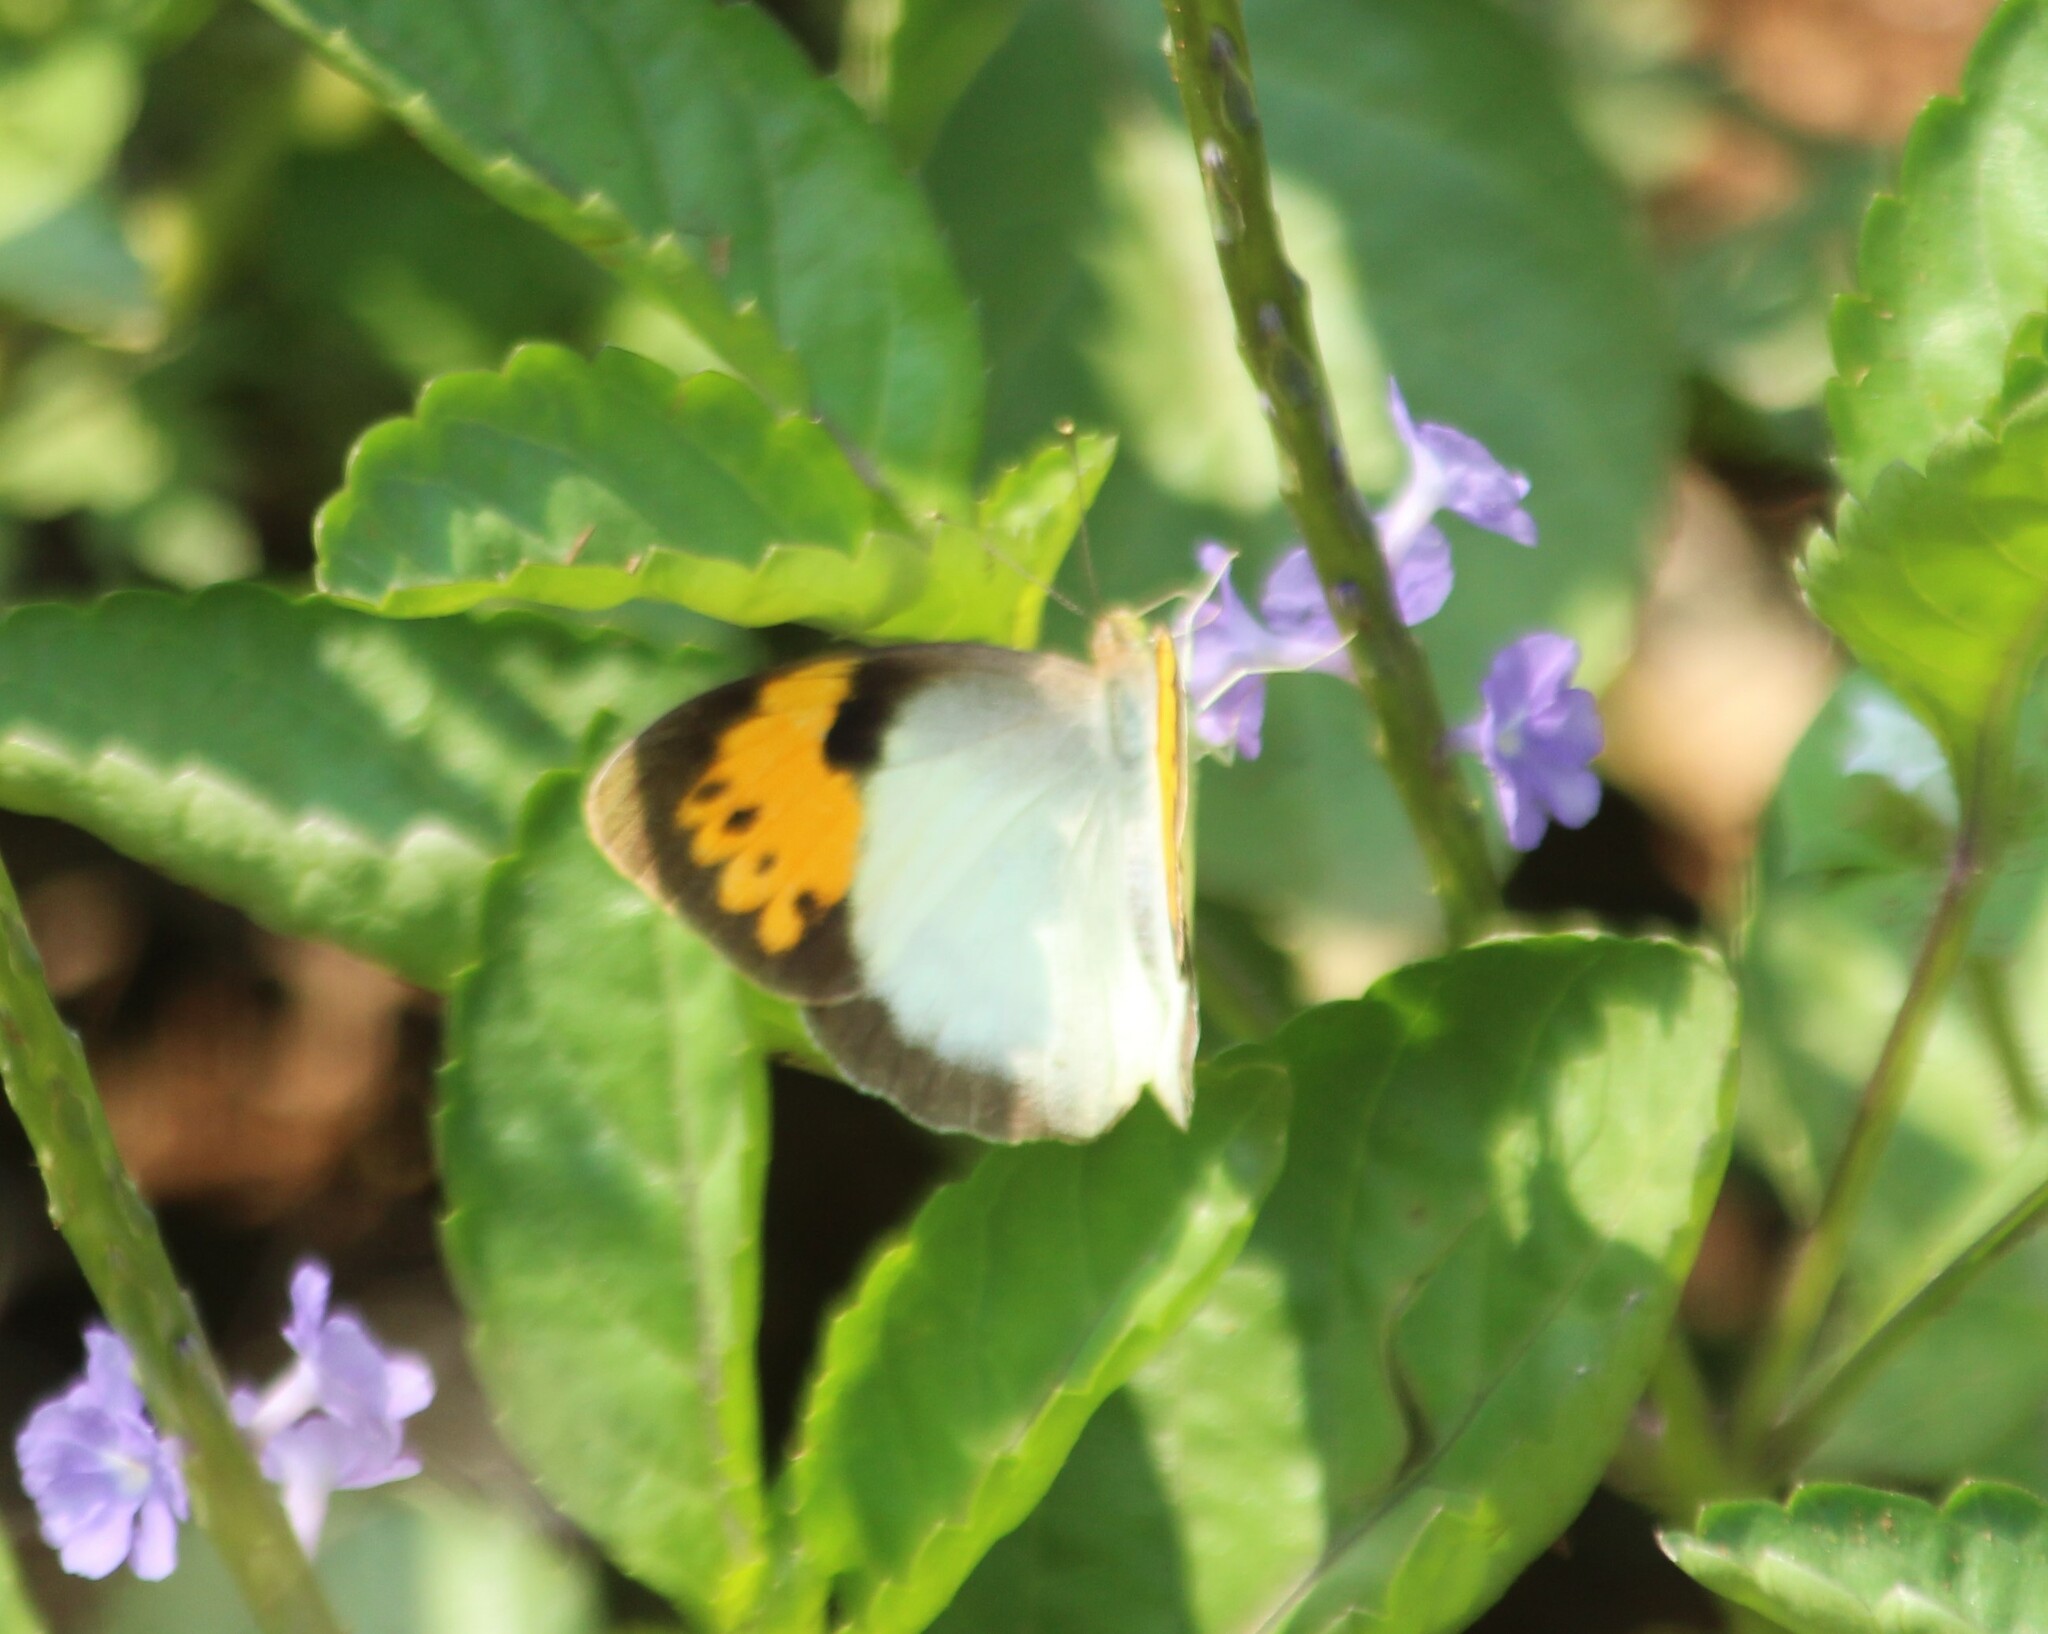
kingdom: Animalia
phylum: Arthropoda
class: Insecta
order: Lepidoptera
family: Pieridae
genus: Ixias
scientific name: Ixias marianne
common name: White orange tip
